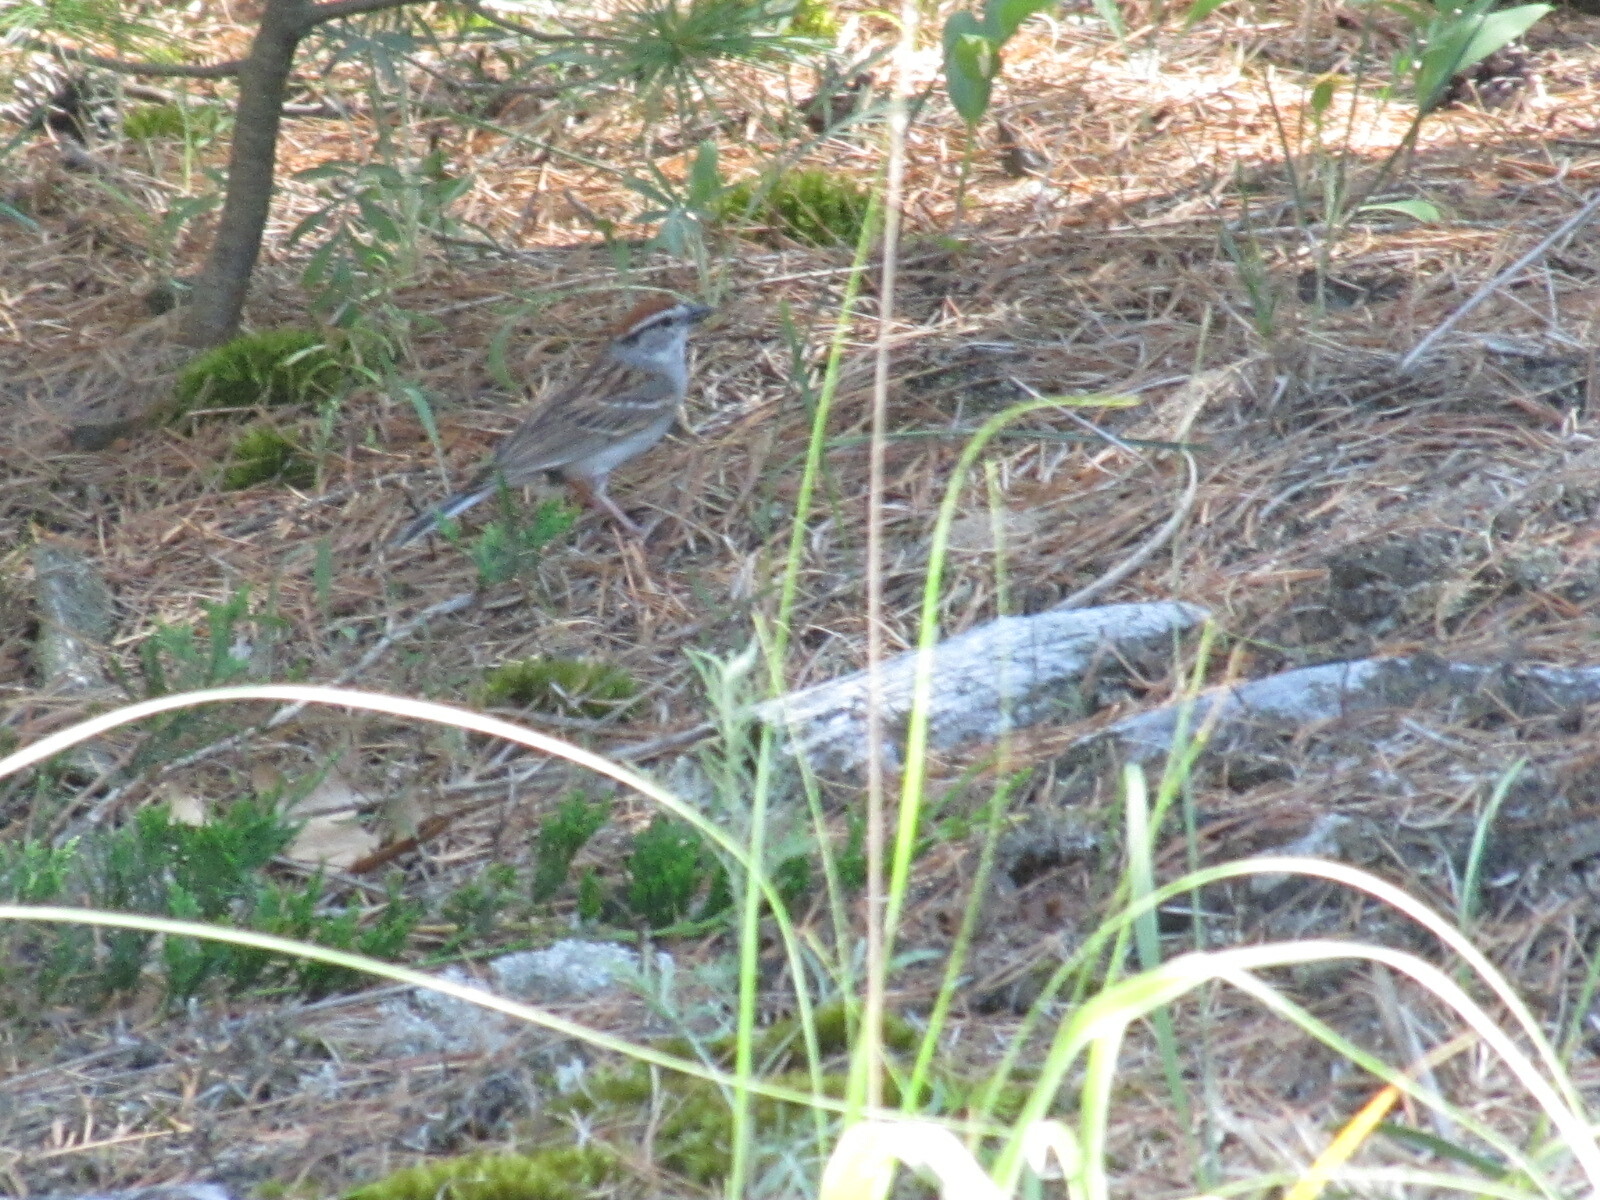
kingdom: Animalia
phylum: Chordata
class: Aves
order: Passeriformes
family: Passerellidae
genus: Spizella
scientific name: Spizella passerina
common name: Chipping sparrow
